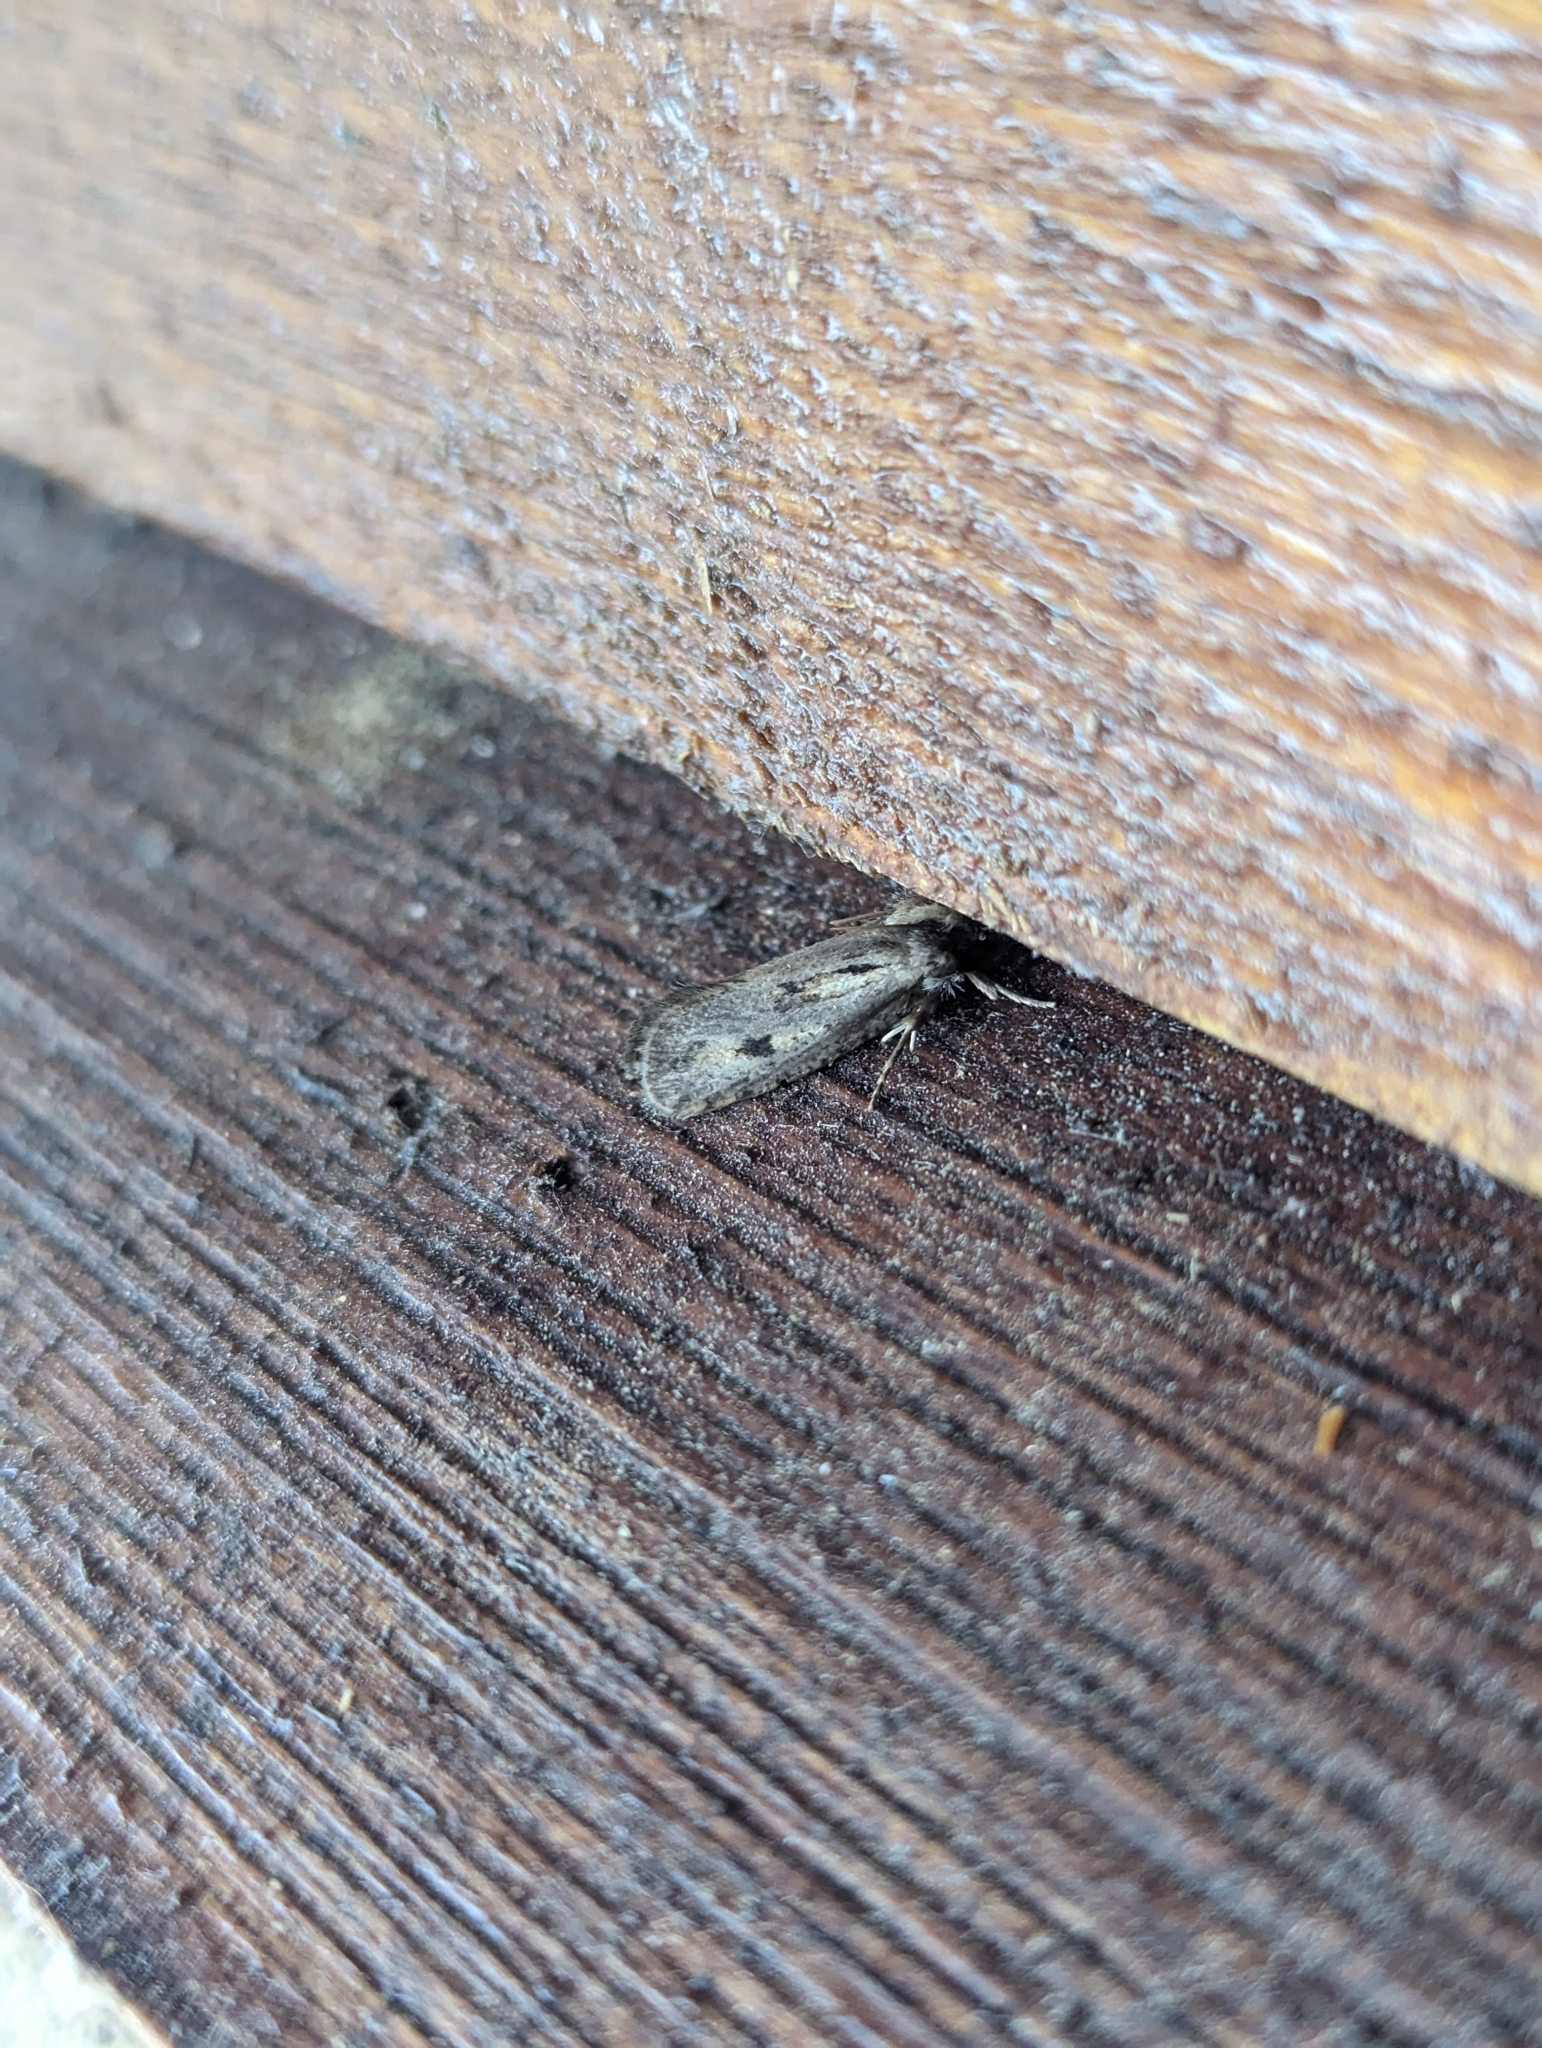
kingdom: Animalia
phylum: Arthropoda
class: Insecta
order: Lepidoptera
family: Tineidae
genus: Acrolophus
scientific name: Acrolophus popeanella
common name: Clemens' grass tubeworm moth
